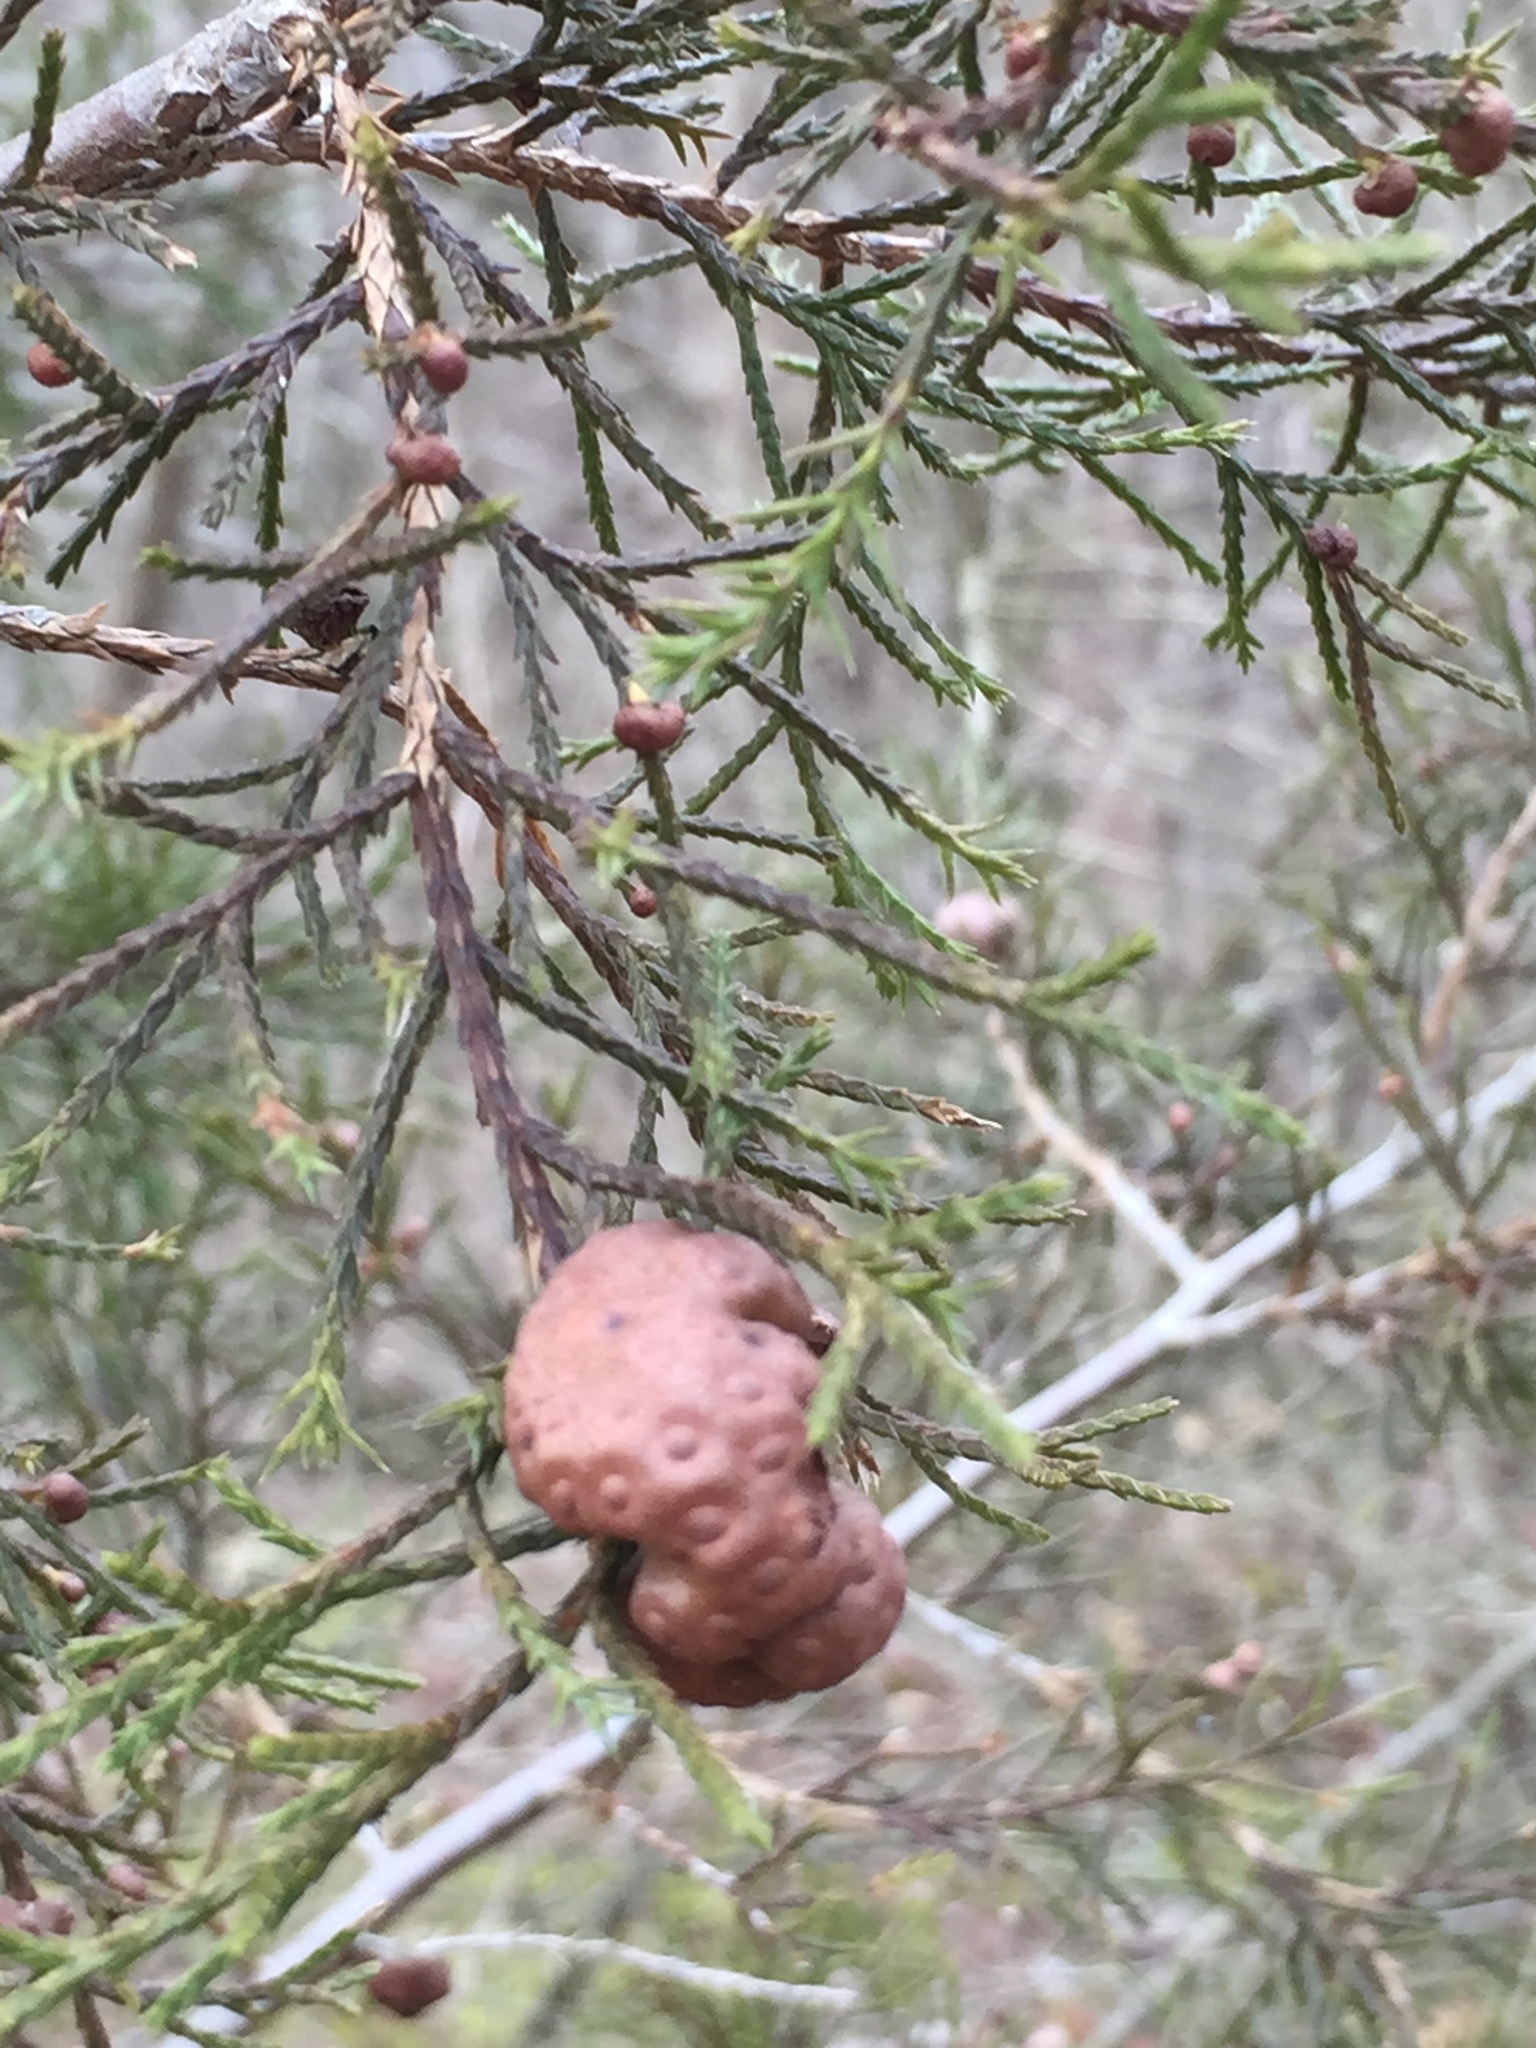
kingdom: Fungi
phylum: Basidiomycota
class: Pucciniomycetes
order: Pucciniales
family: Gymnosporangiaceae
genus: Gymnosporangium
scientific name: Gymnosporangium juniperi-virginianae
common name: Juniper-apple rust
